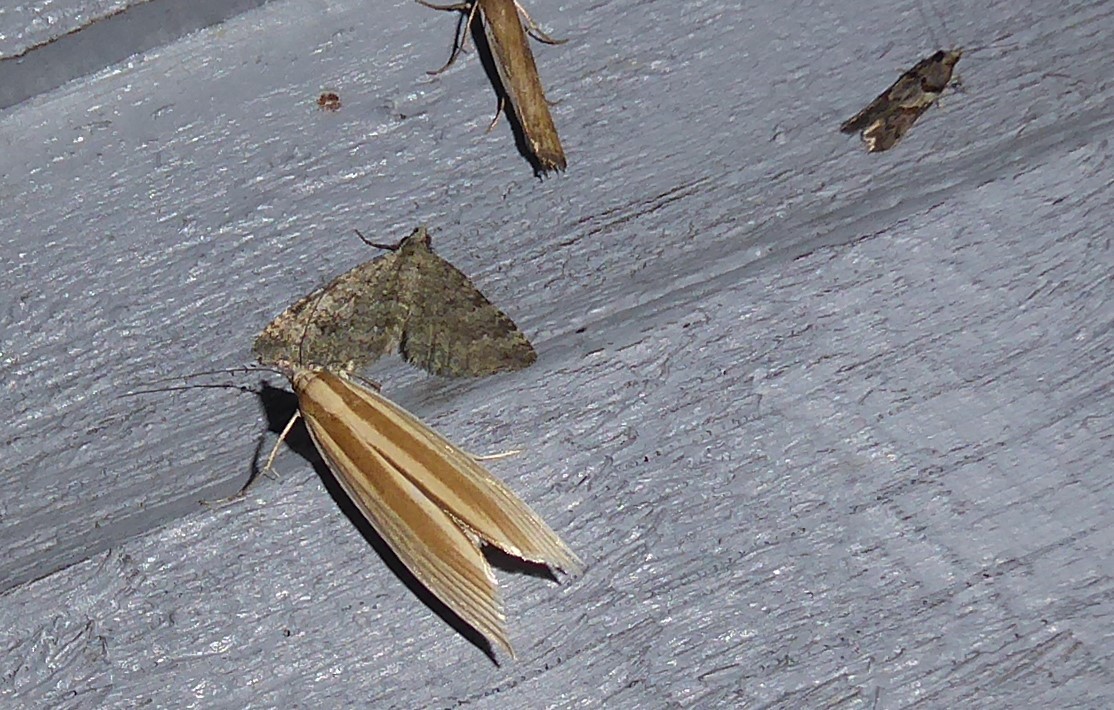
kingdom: Animalia
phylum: Arthropoda
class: Insecta
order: Lepidoptera
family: Crambidae
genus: Orocrambus
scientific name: Orocrambus angustipennis
